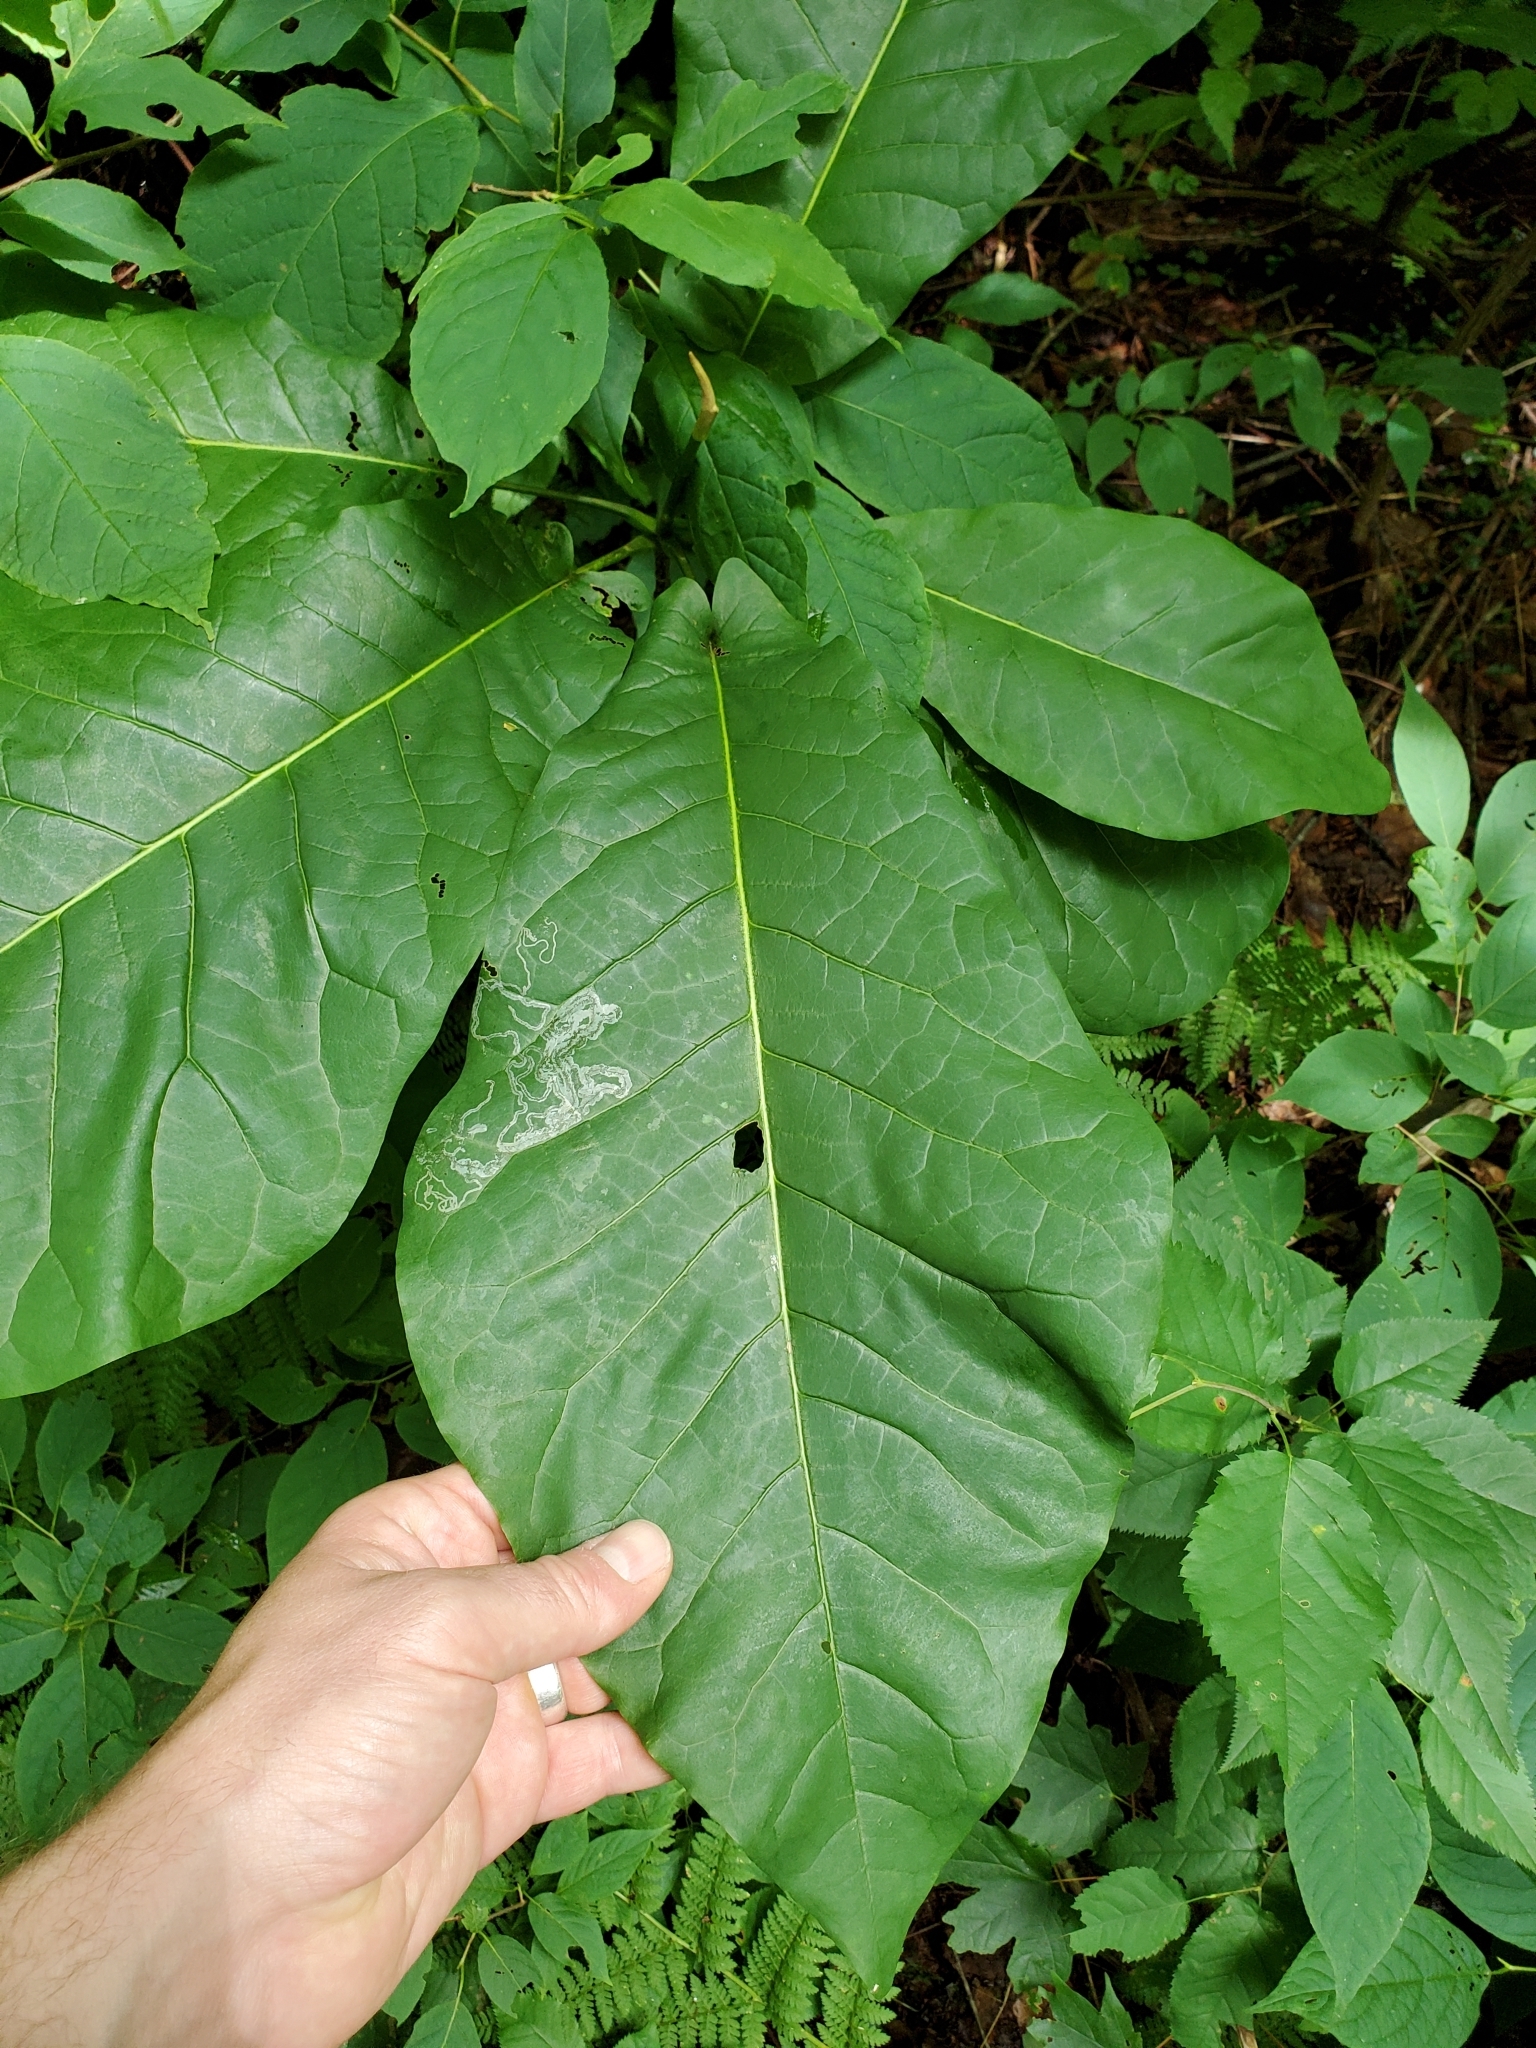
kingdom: Animalia
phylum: Arthropoda
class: Insecta
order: Lepidoptera
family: Gracillariidae
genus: Phyllocnistis
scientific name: Phyllocnistis liriodendronella
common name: Tulip tree leaf miner
